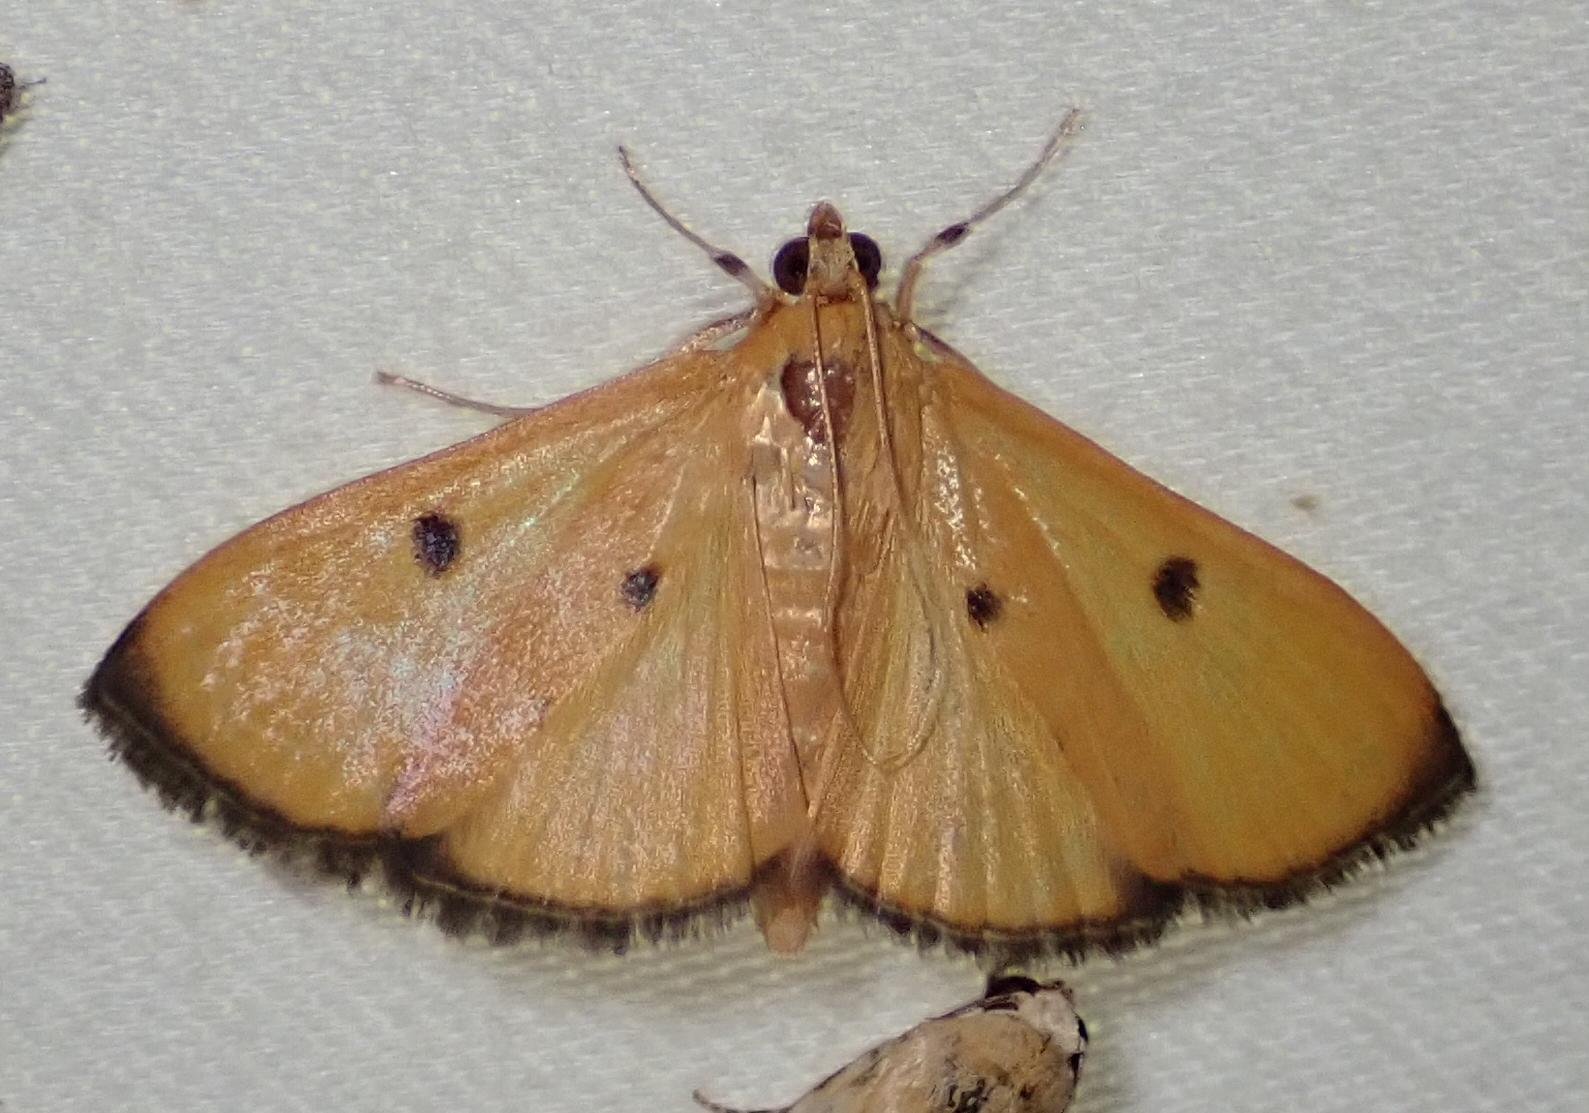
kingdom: Animalia
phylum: Arthropoda
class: Insecta
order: Lepidoptera
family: Crambidae
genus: Phostria
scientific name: Phostria bistigmalis
